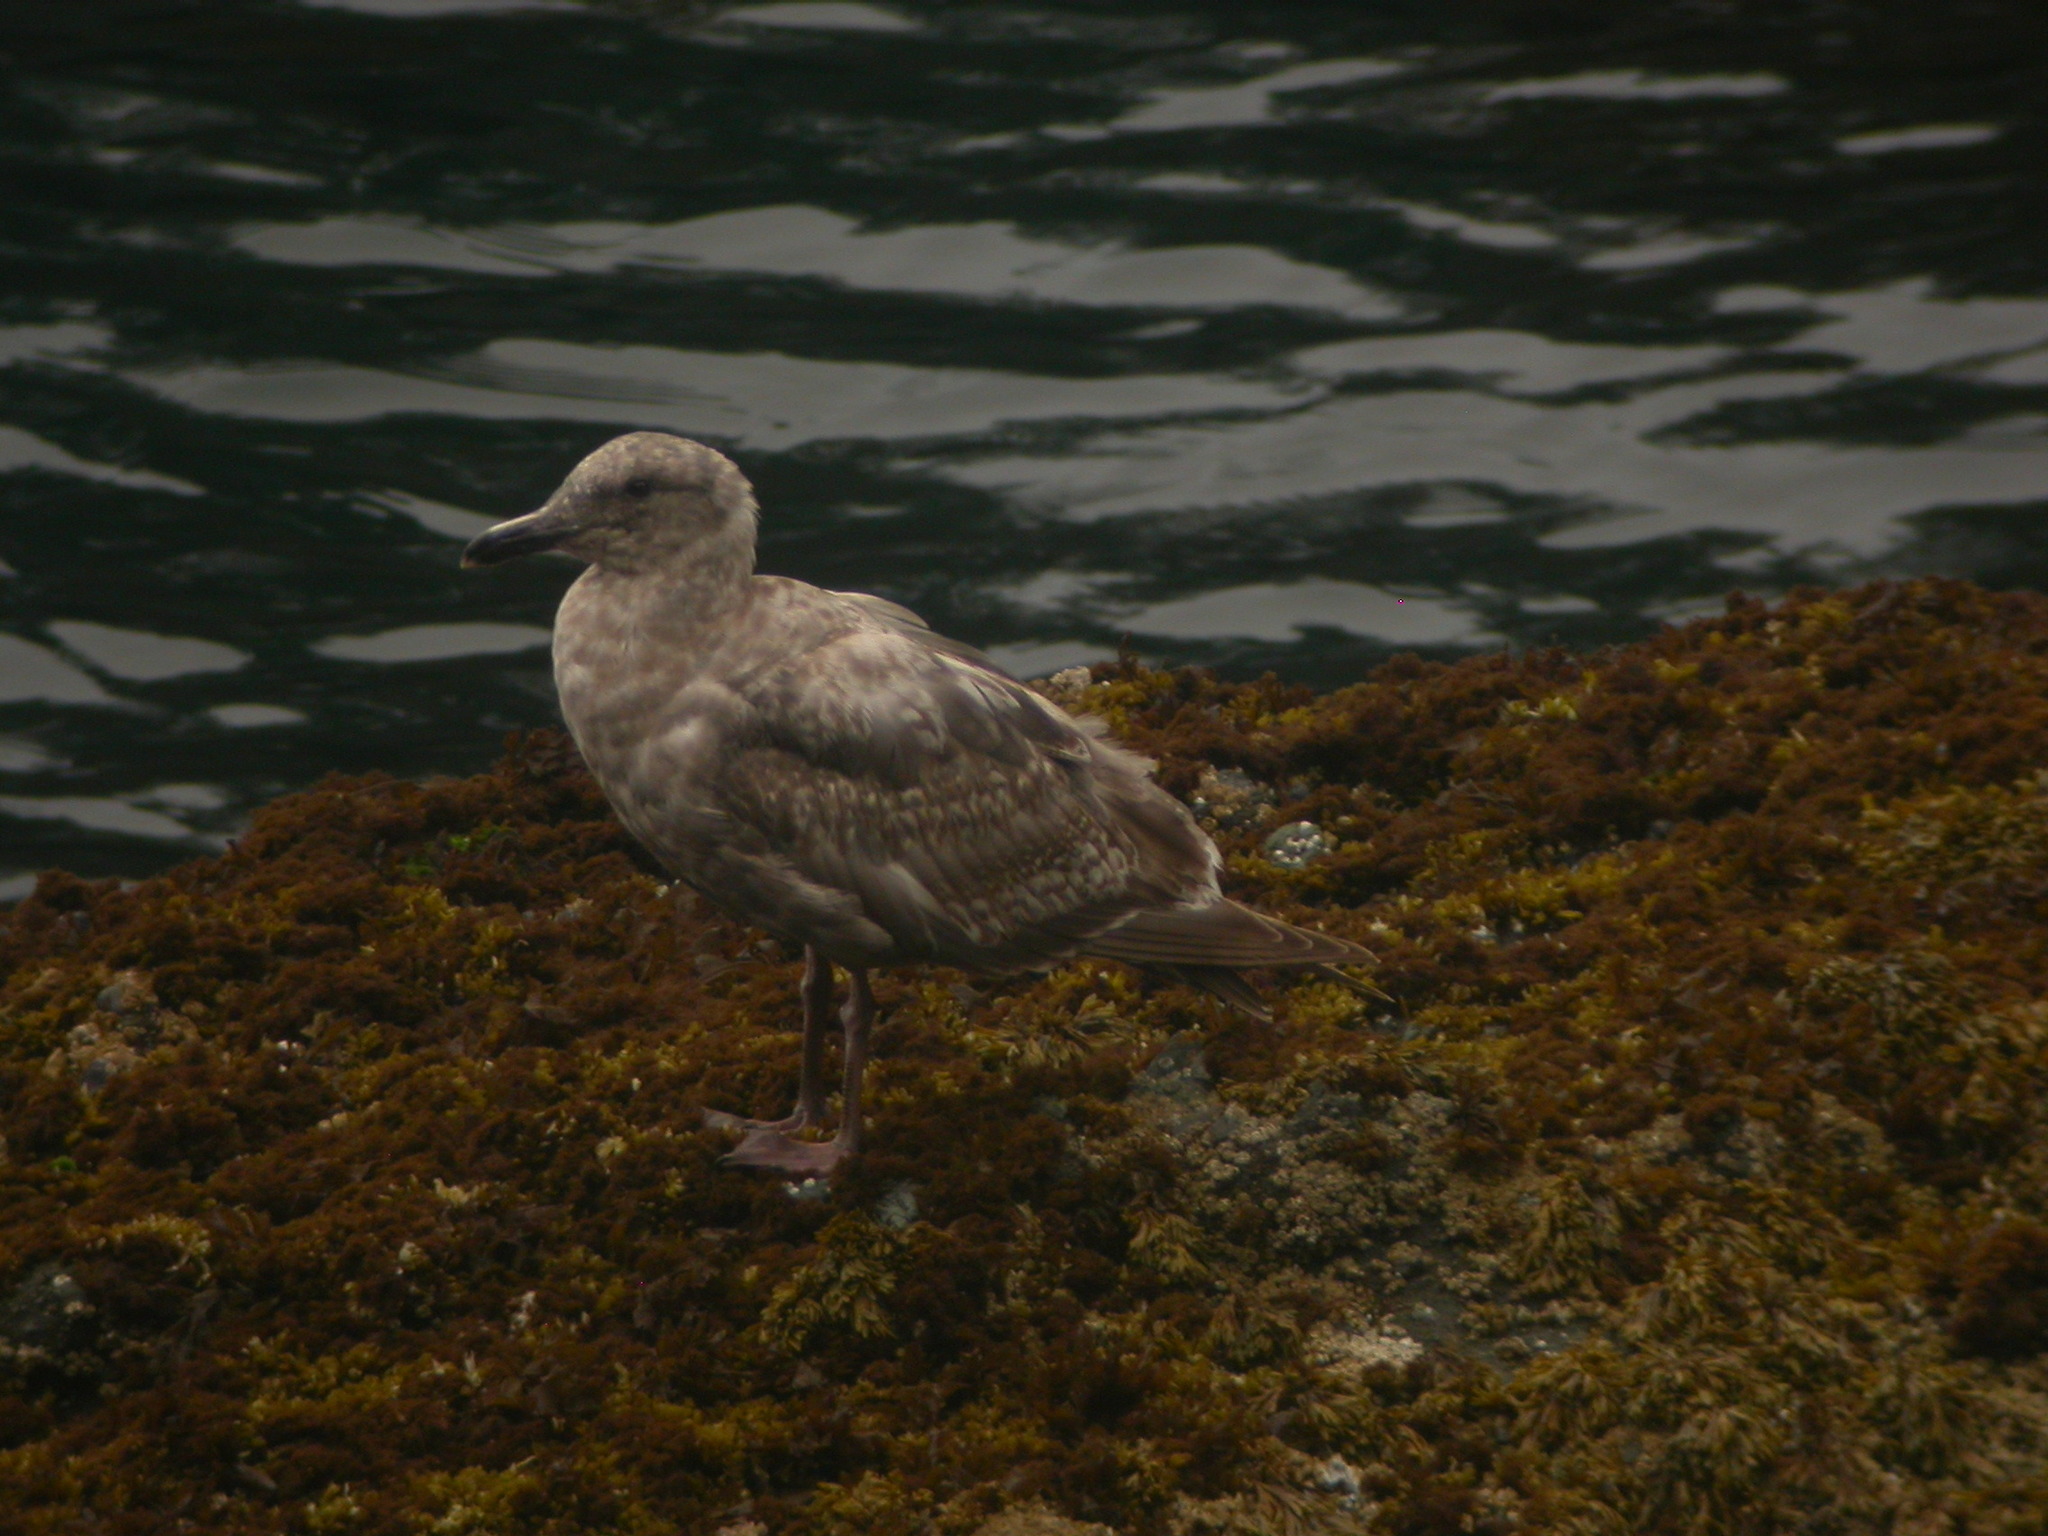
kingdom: Animalia
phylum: Chordata
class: Aves
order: Charadriiformes
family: Laridae
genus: Larus
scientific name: Larus glaucescens
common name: Glaucous-winged gull
